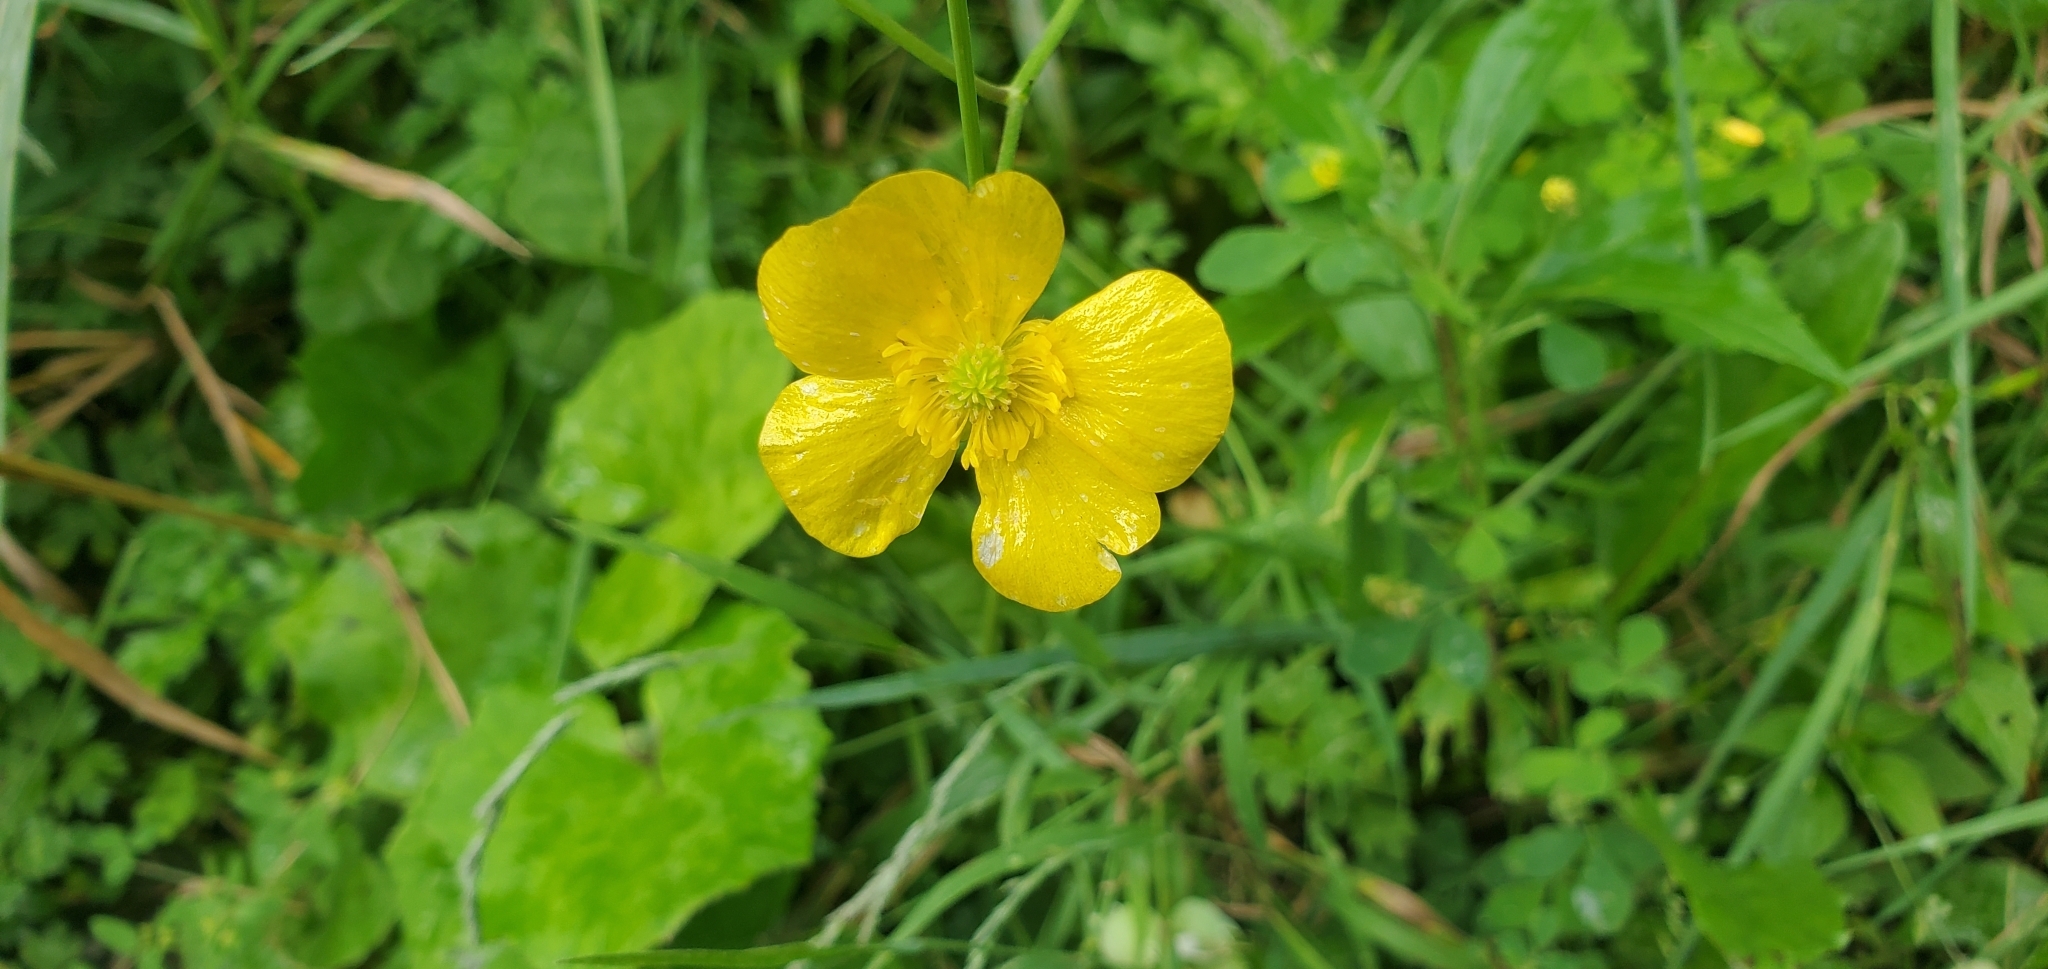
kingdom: Plantae
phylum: Tracheophyta
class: Magnoliopsida
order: Ranunculales
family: Ranunculaceae
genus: Ranunculus
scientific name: Ranunculus acris
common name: Meadow buttercup
